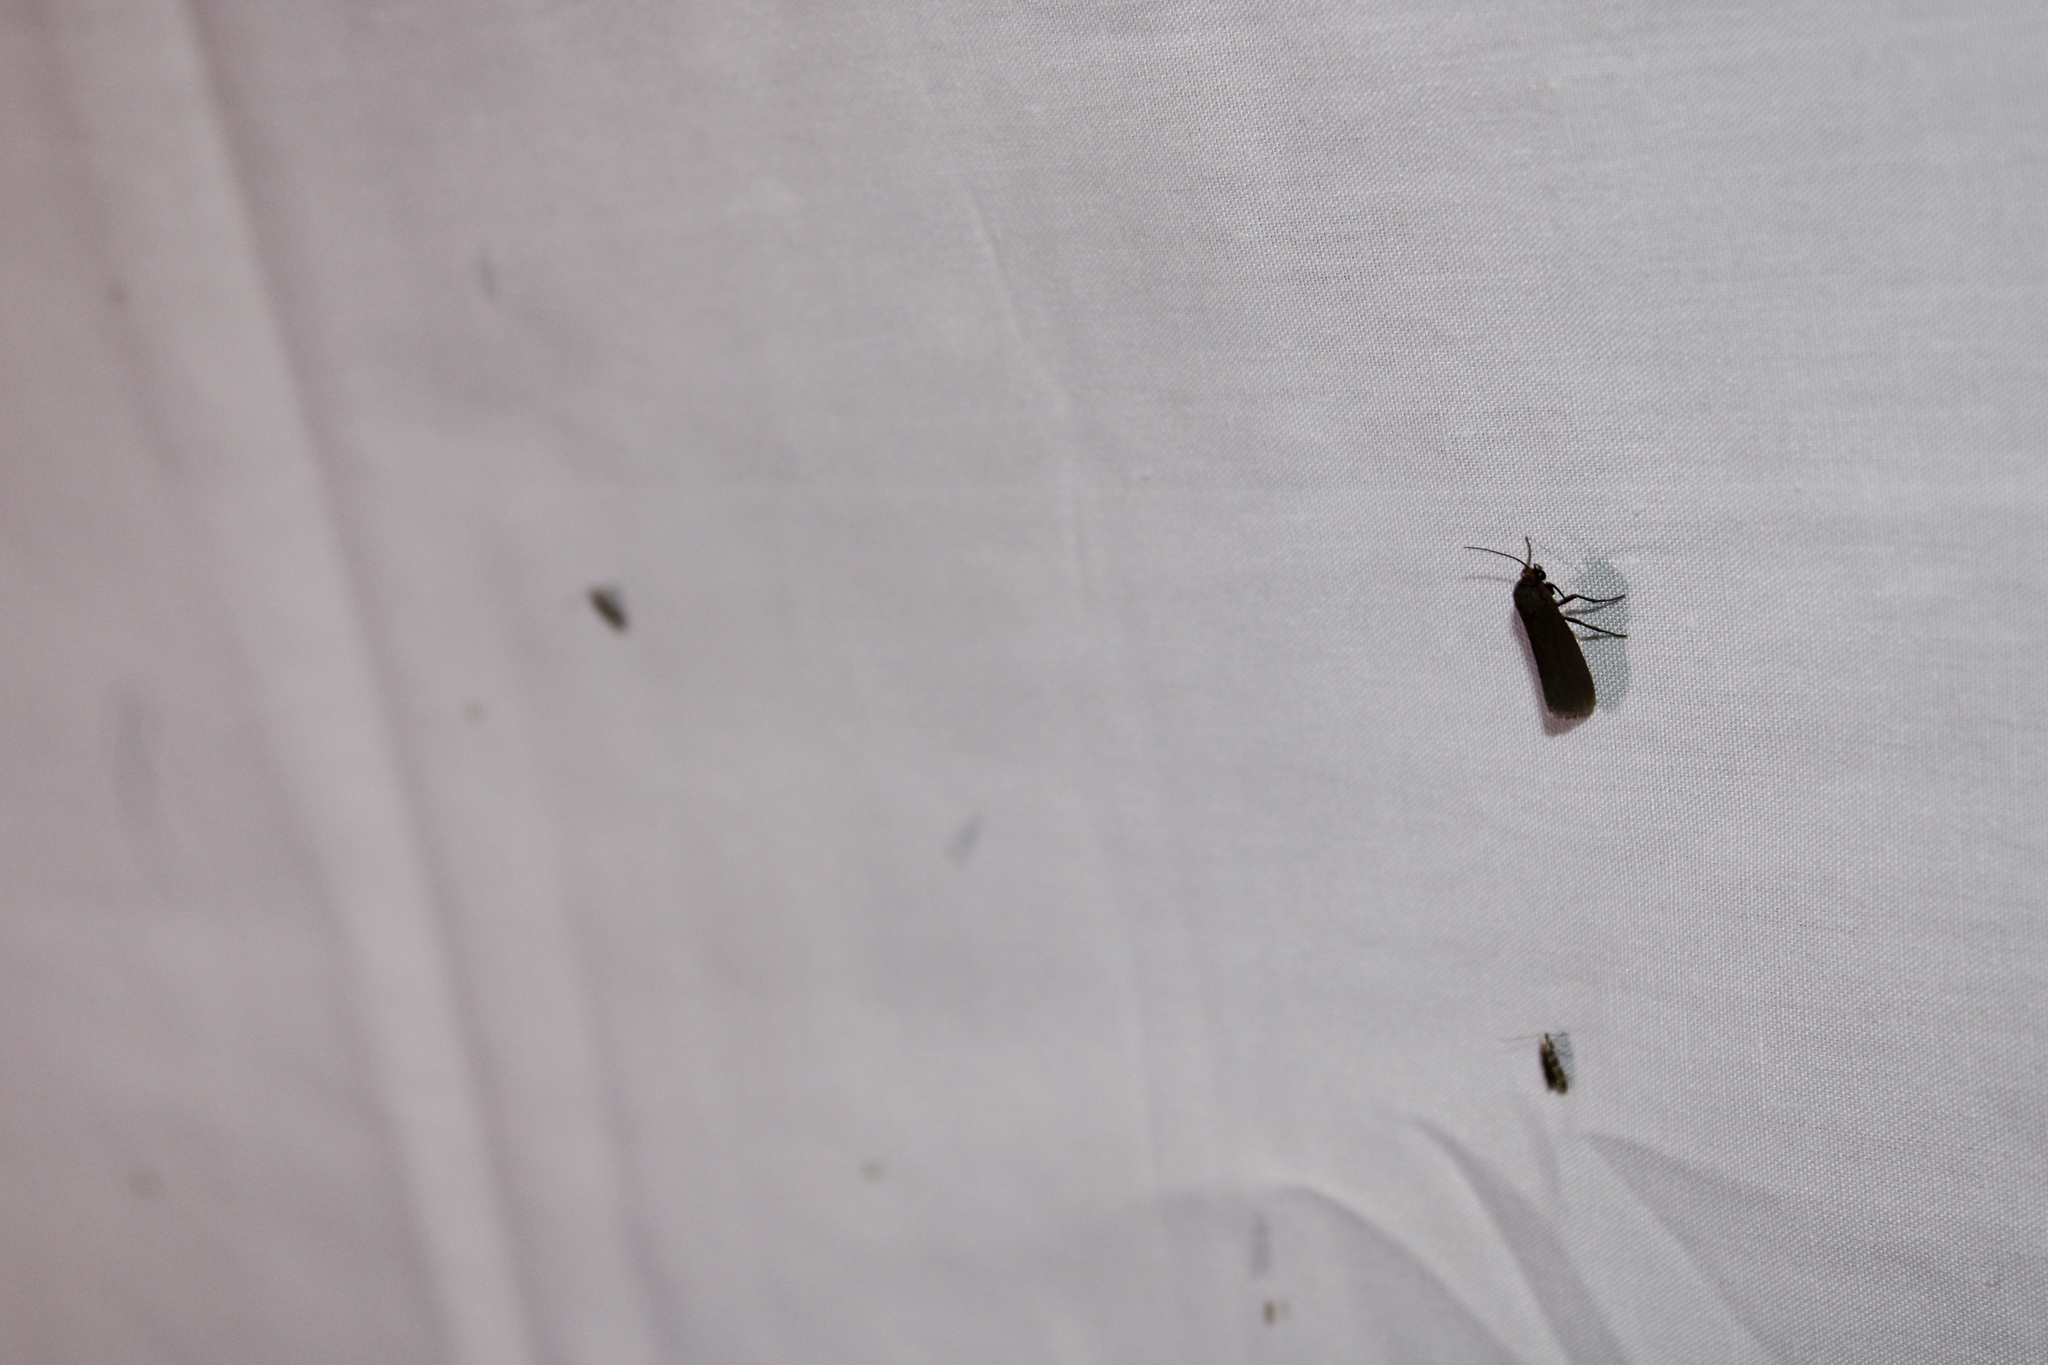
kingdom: Animalia
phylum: Arthropoda
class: Insecta
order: Lepidoptera
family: Erebidae
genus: Virbia
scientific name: Virbia laeta
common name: Joyful holomelina moth
